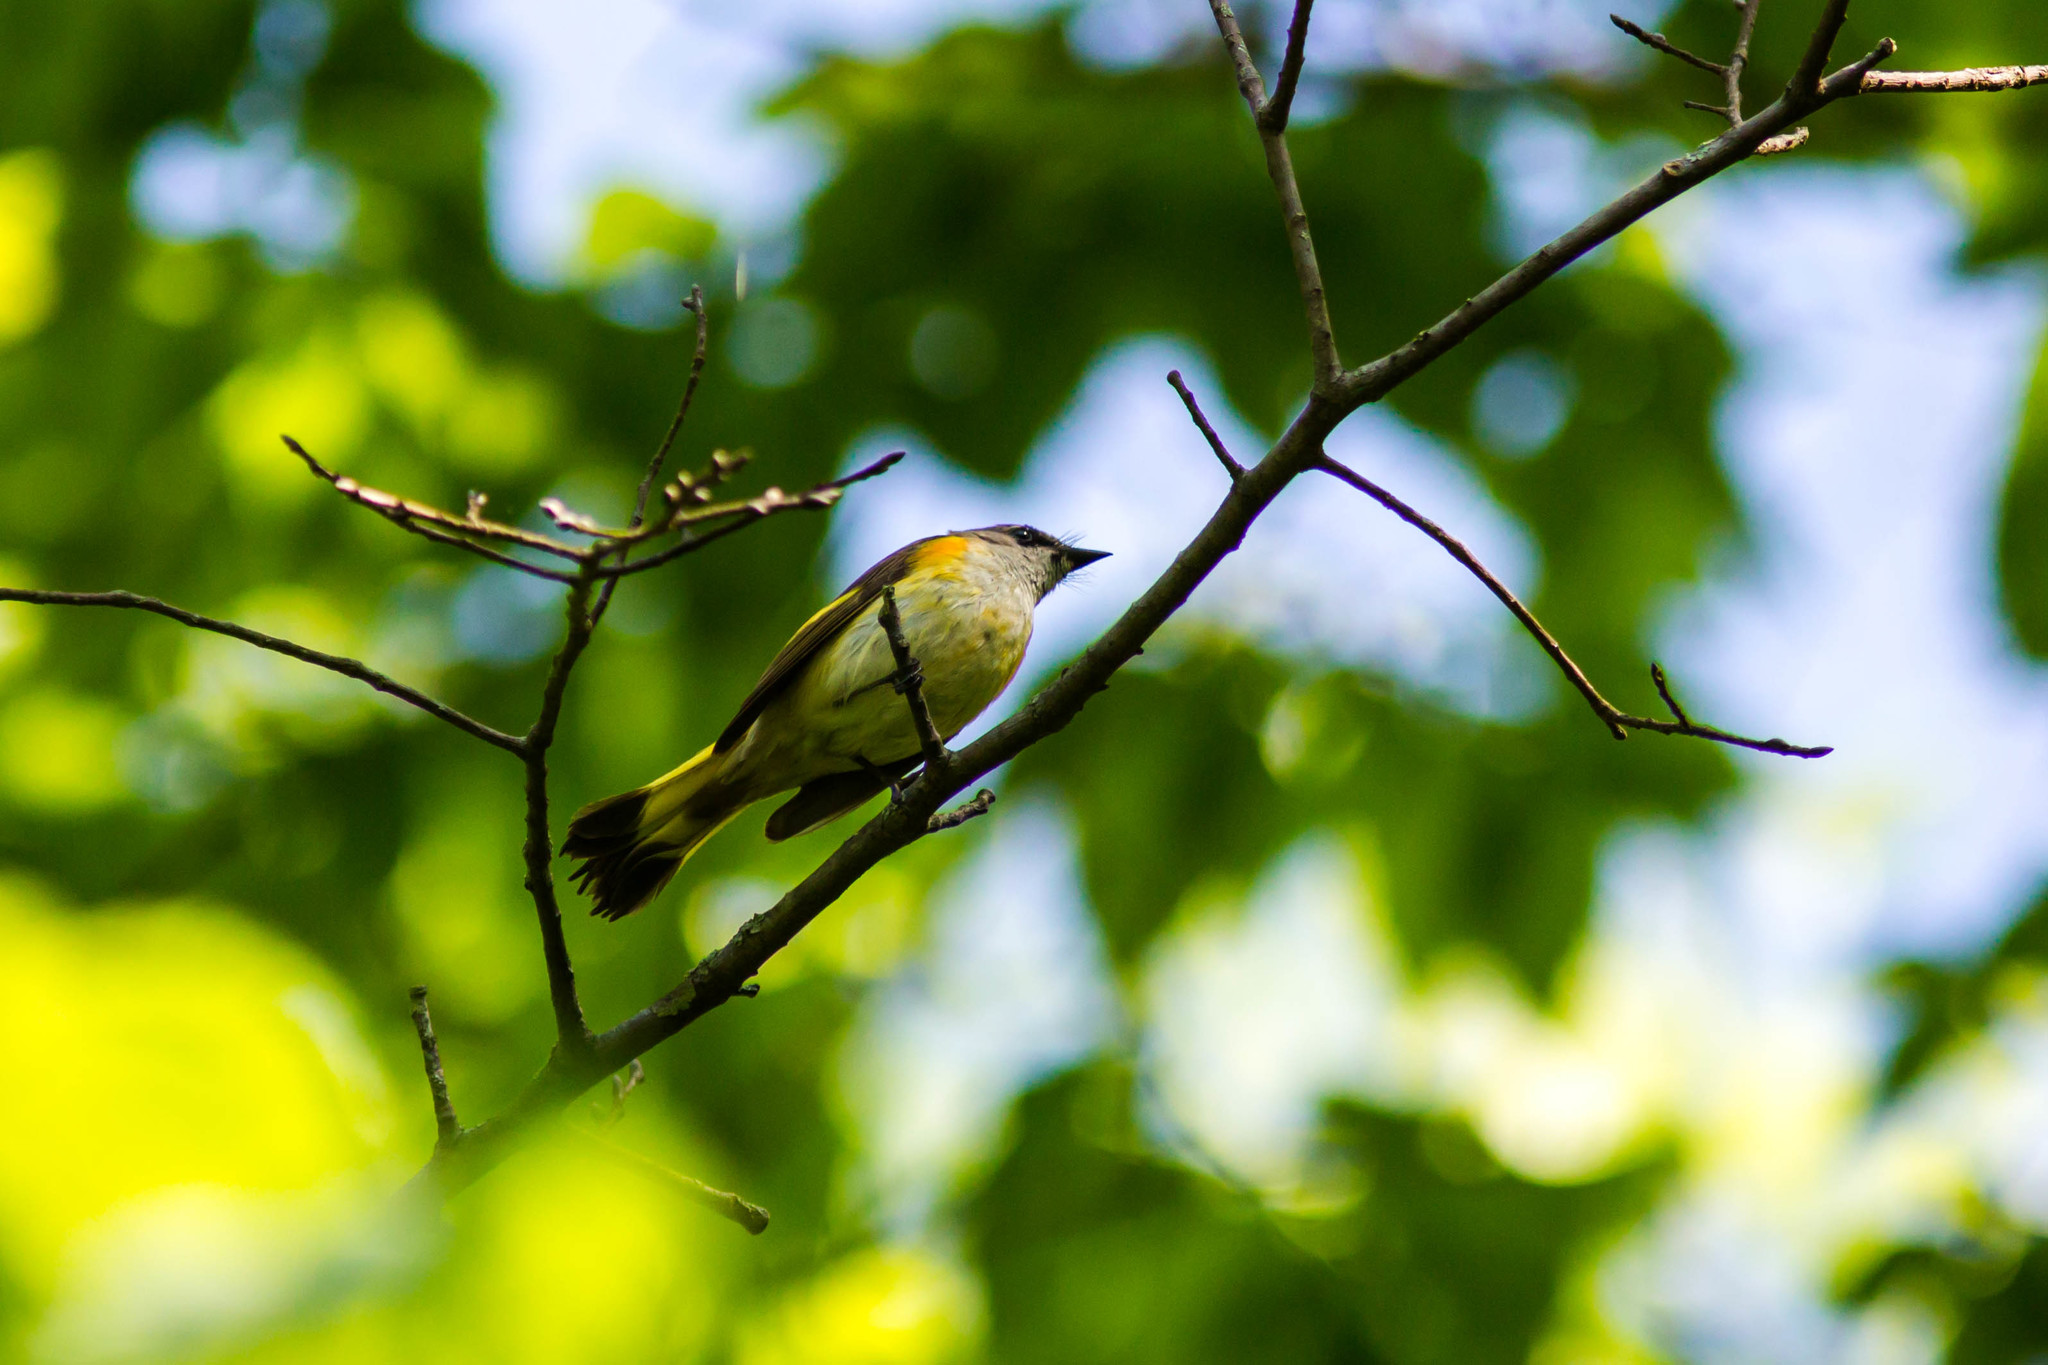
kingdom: Animalia
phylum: Chordata
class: Aves
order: Passeriformes
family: Parulidae
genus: Setophaga
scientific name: Setophaga ruticilla
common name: American redstart
